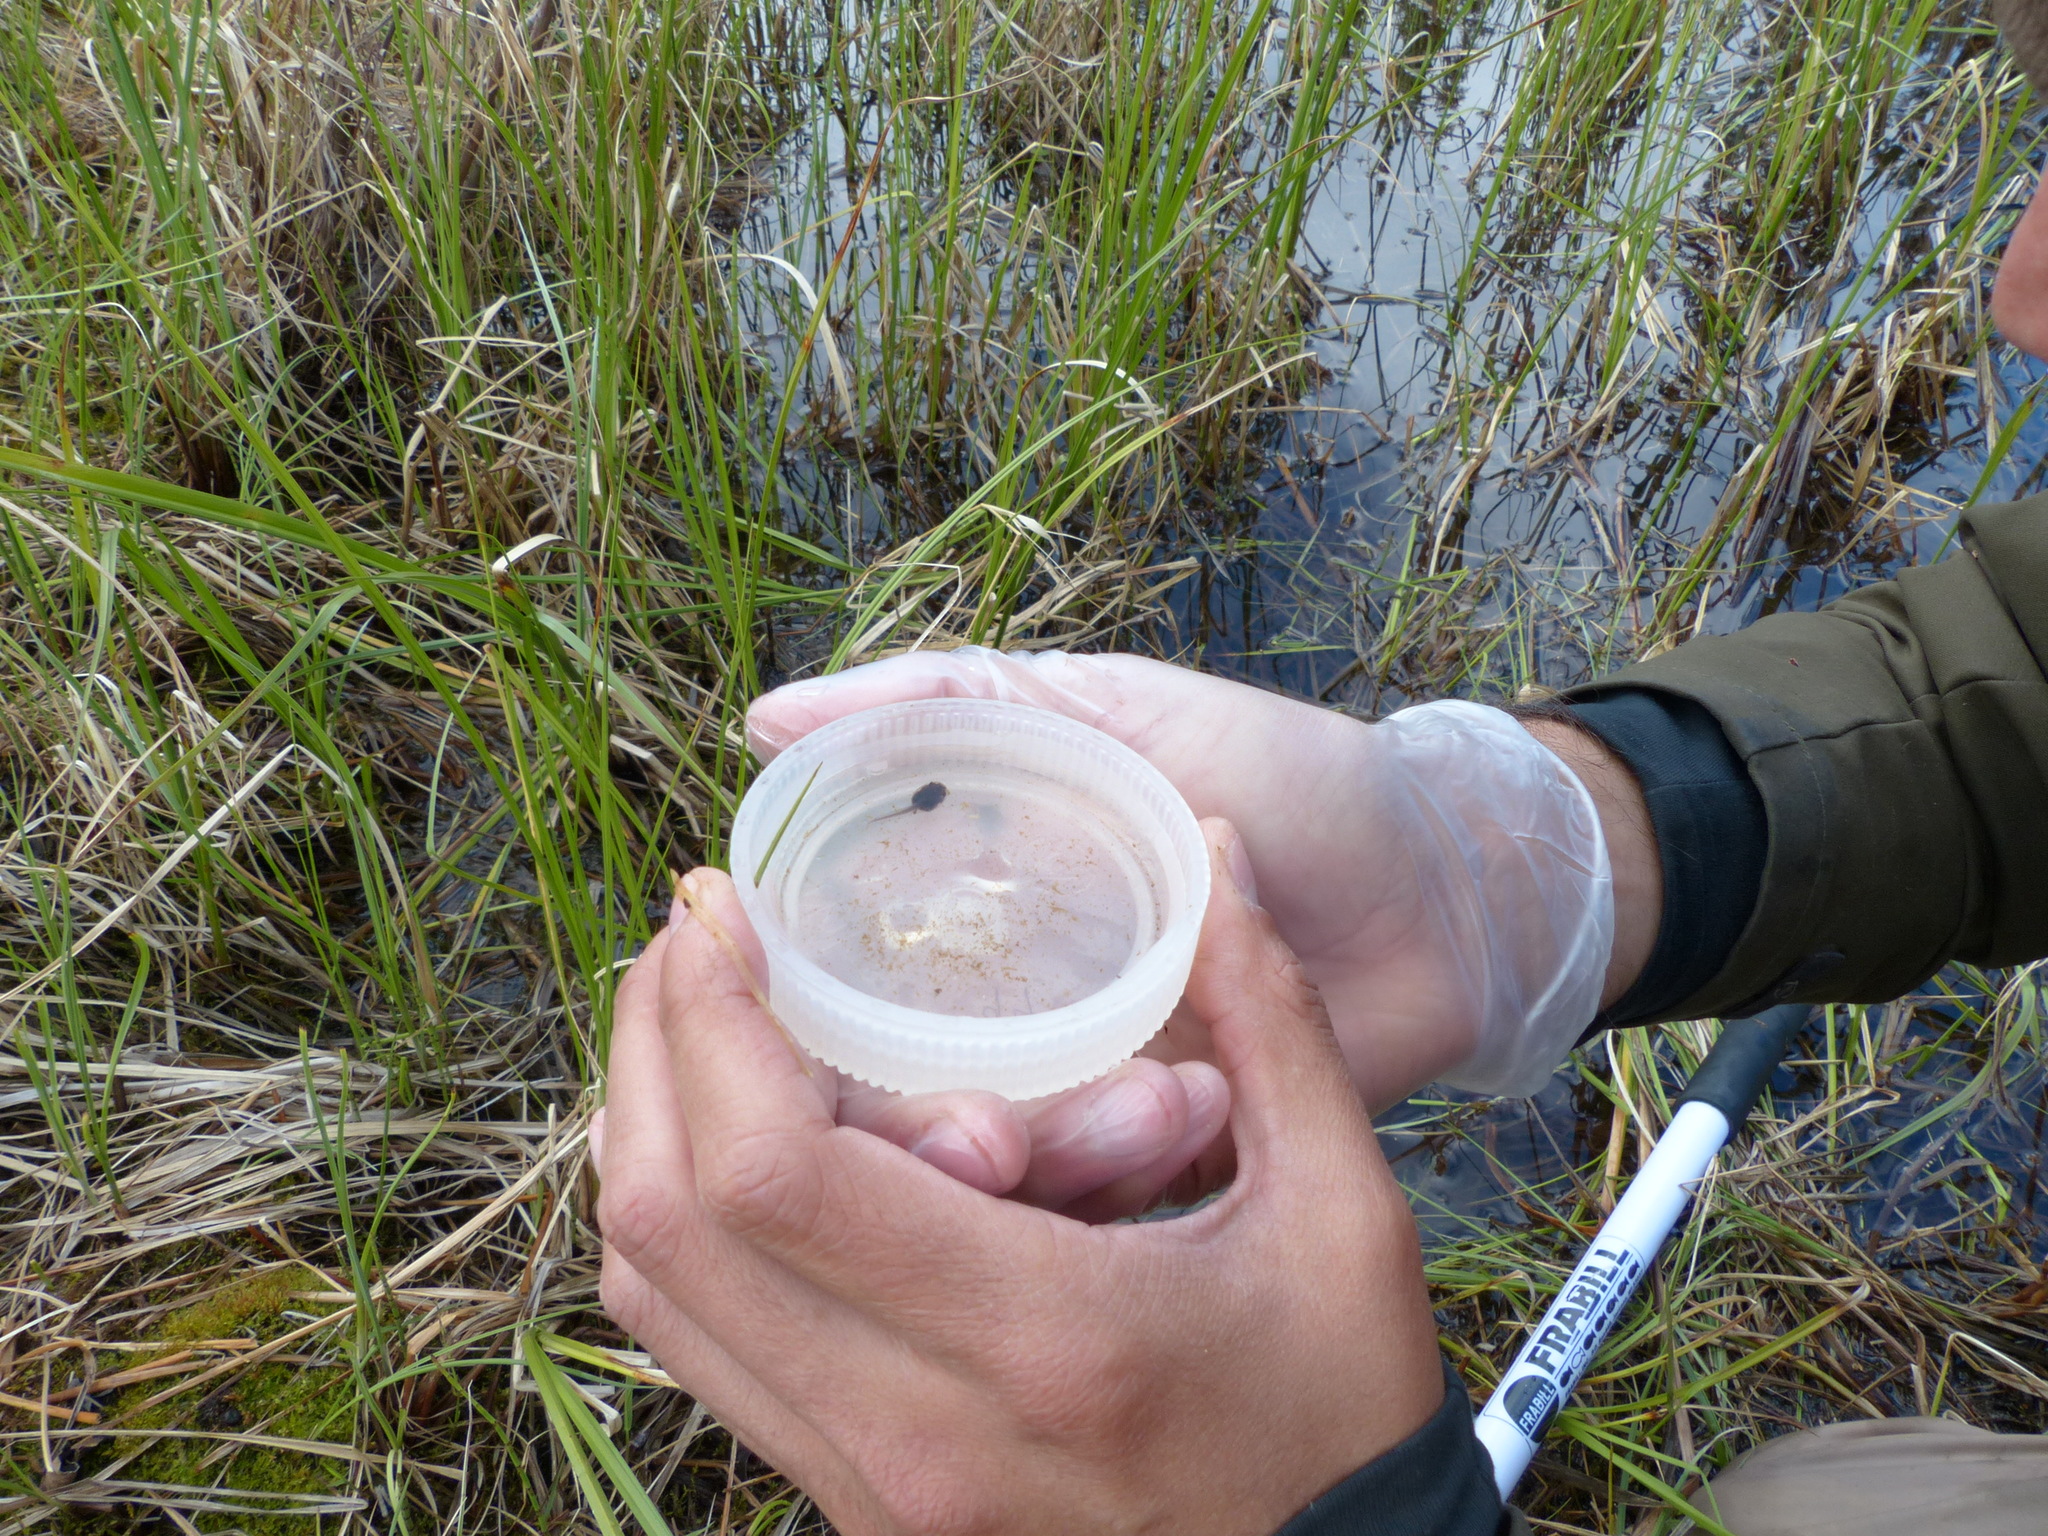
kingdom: Animalia
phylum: Chordata
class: Amphibia
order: Anura
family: Ranidae
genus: Lithobates
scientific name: Lithobates sylvaticus
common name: Wood frog
